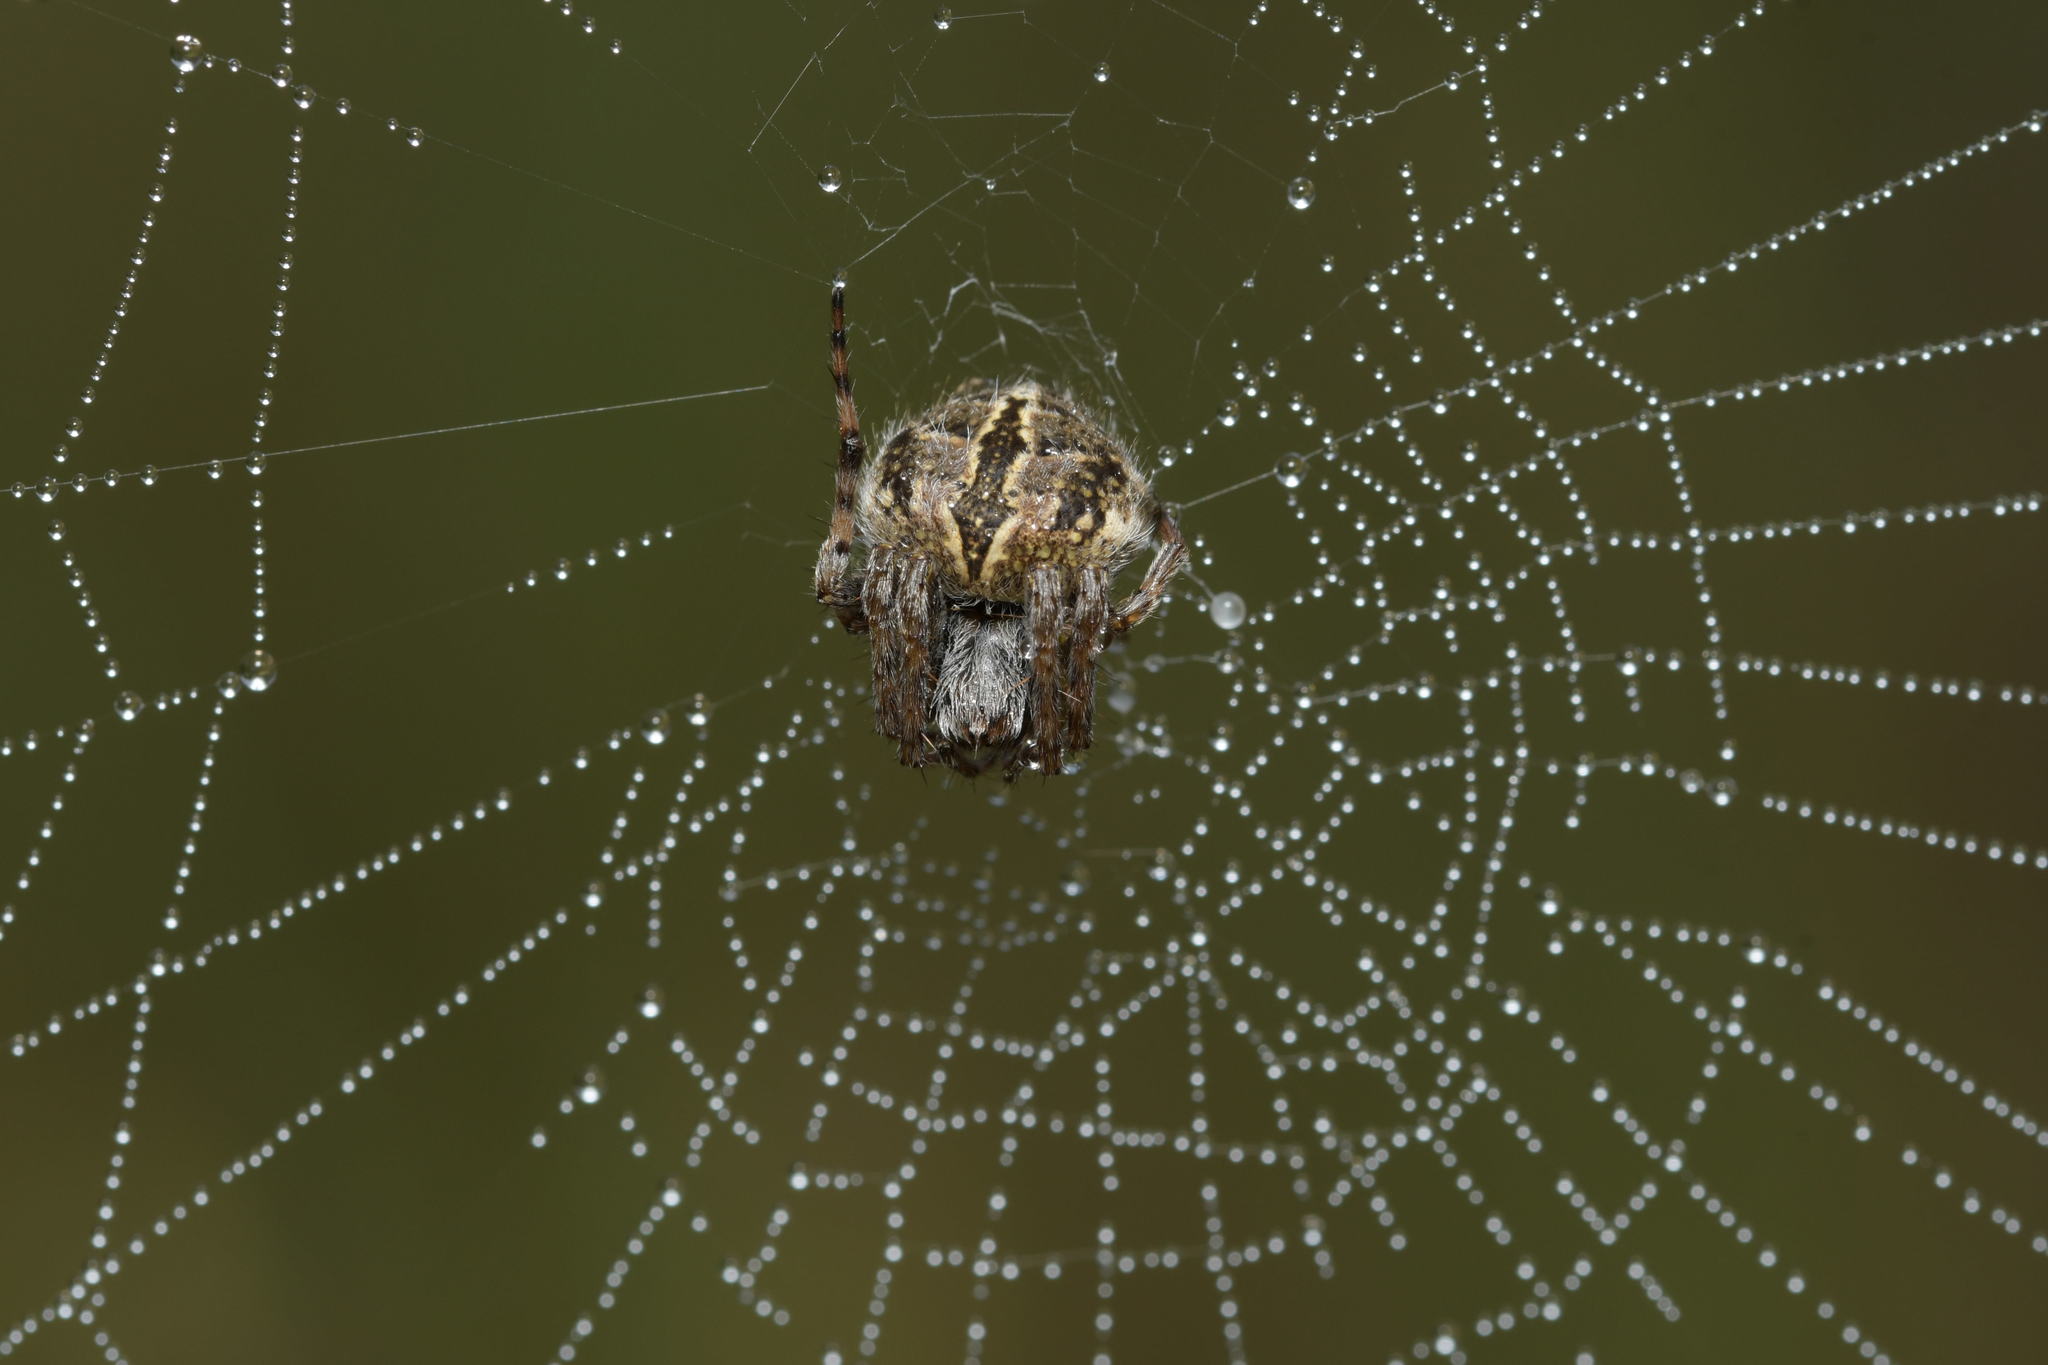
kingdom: Animalia
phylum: Arthropoda
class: Arachnida
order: Araneae
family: Araneidae
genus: Agalenatea
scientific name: Agalenatea redii
